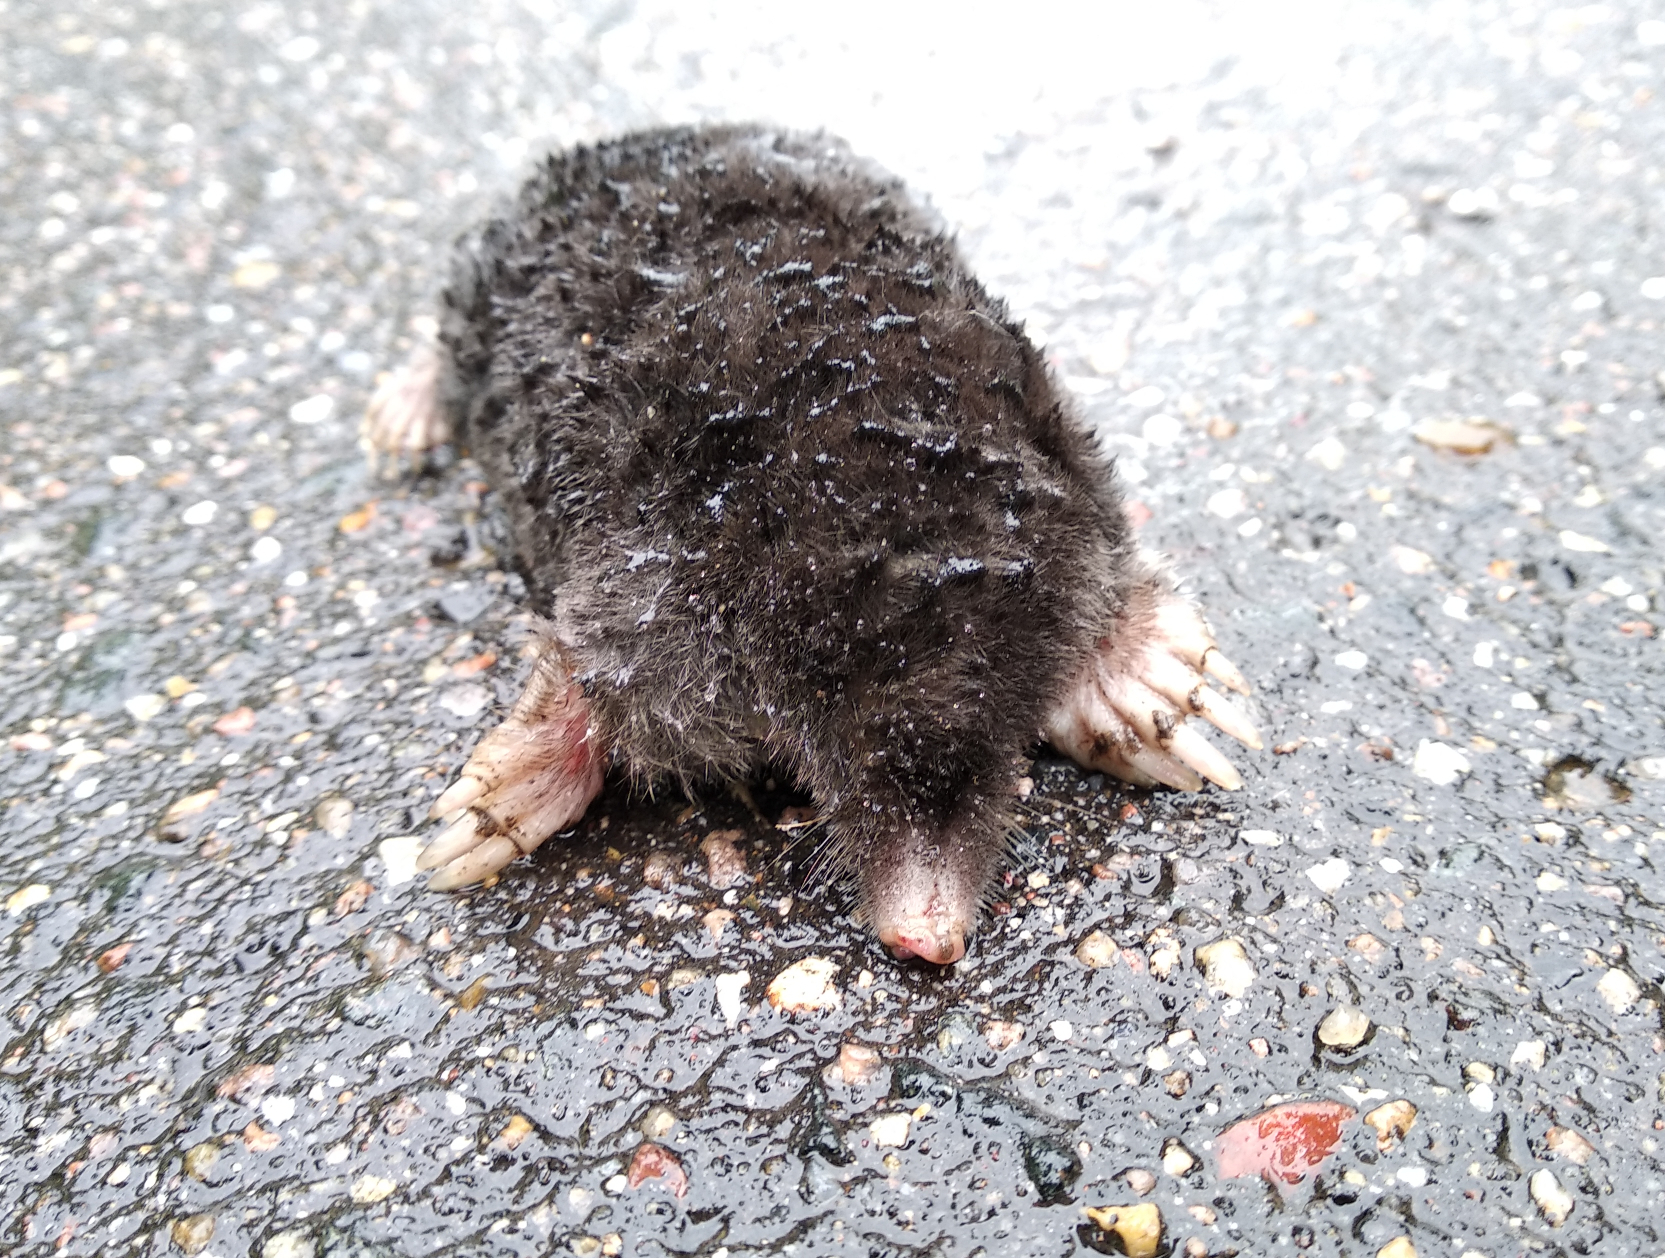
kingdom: Animalia
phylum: Chordata
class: Mammalia
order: Soricomorpha
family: Talpidae
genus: Talpa
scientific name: Talpa europaea
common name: European mole
